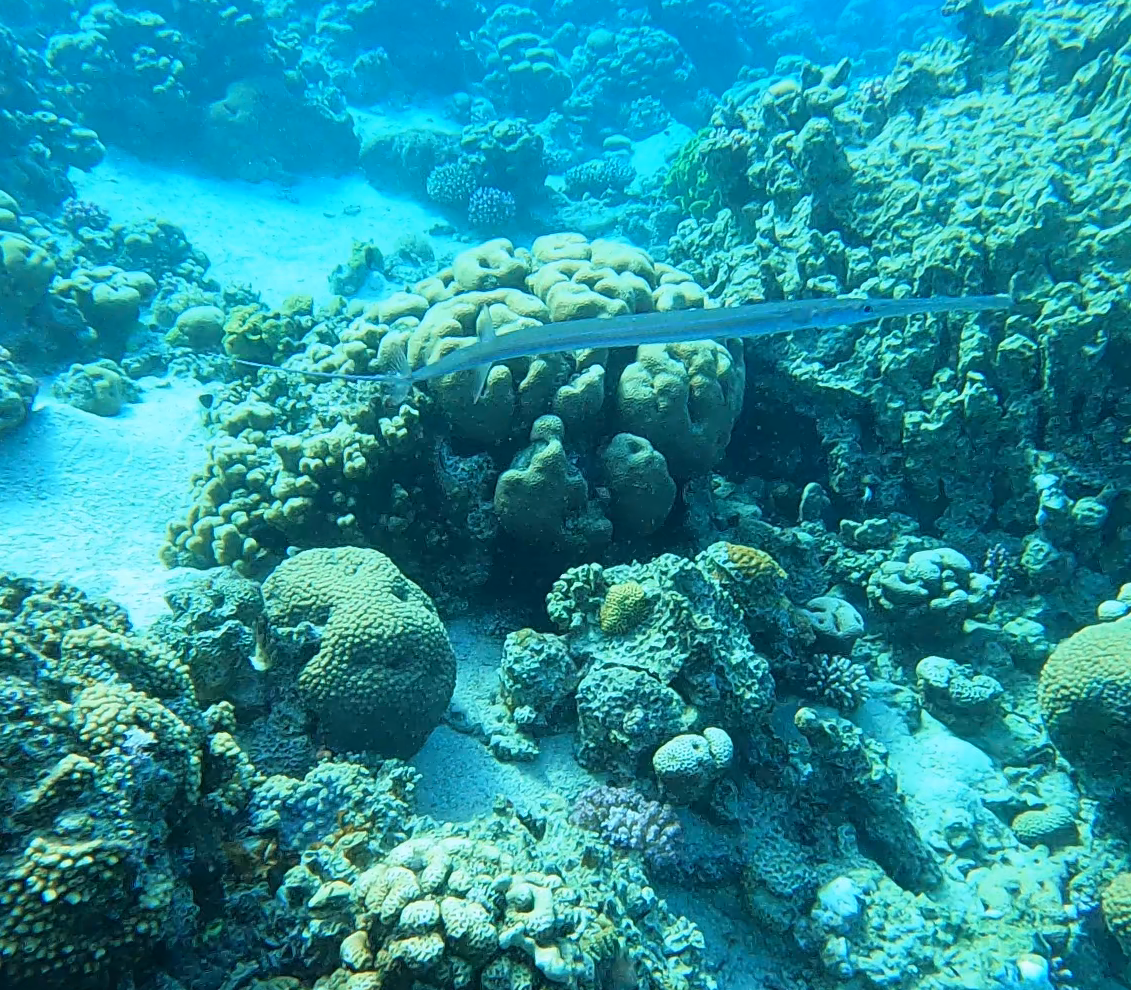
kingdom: Animalia
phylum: Chordata
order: Syngnathiformes
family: Fistulariidae
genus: Fistularia
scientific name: Fistularia commersonii
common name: Bluespotted cornetfish
